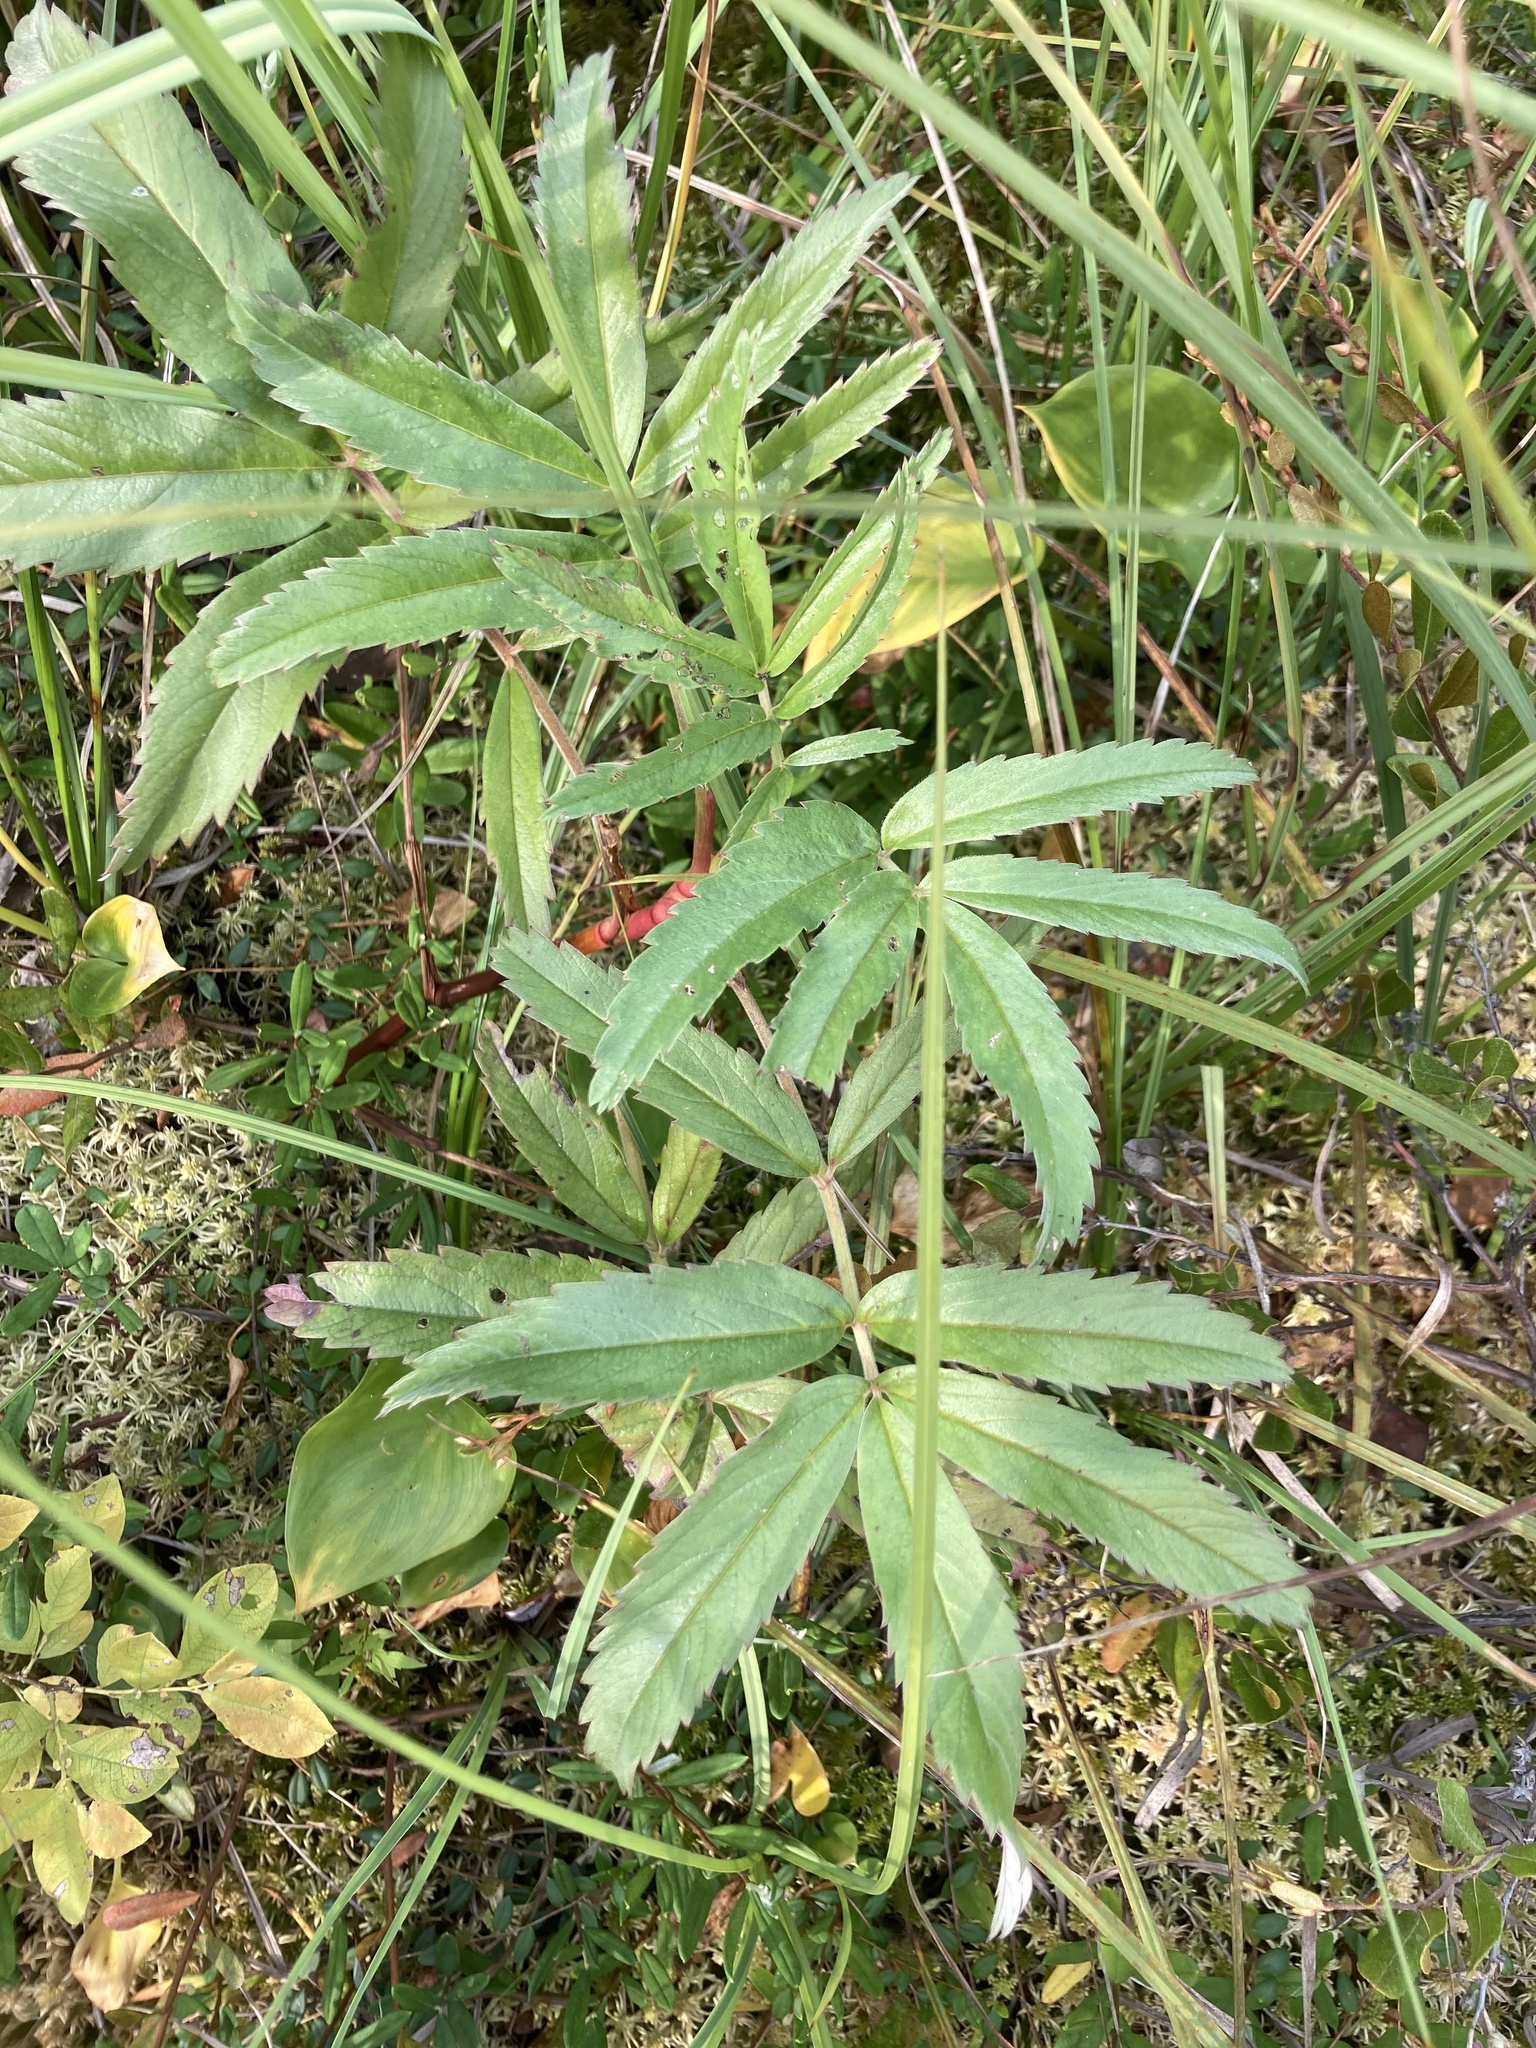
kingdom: Plantae
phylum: Tracheophyta
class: Magnoliopsida
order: Rosales
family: Rosaceae
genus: Comarum
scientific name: Comarum palustre
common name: Marsh cinquefoil
